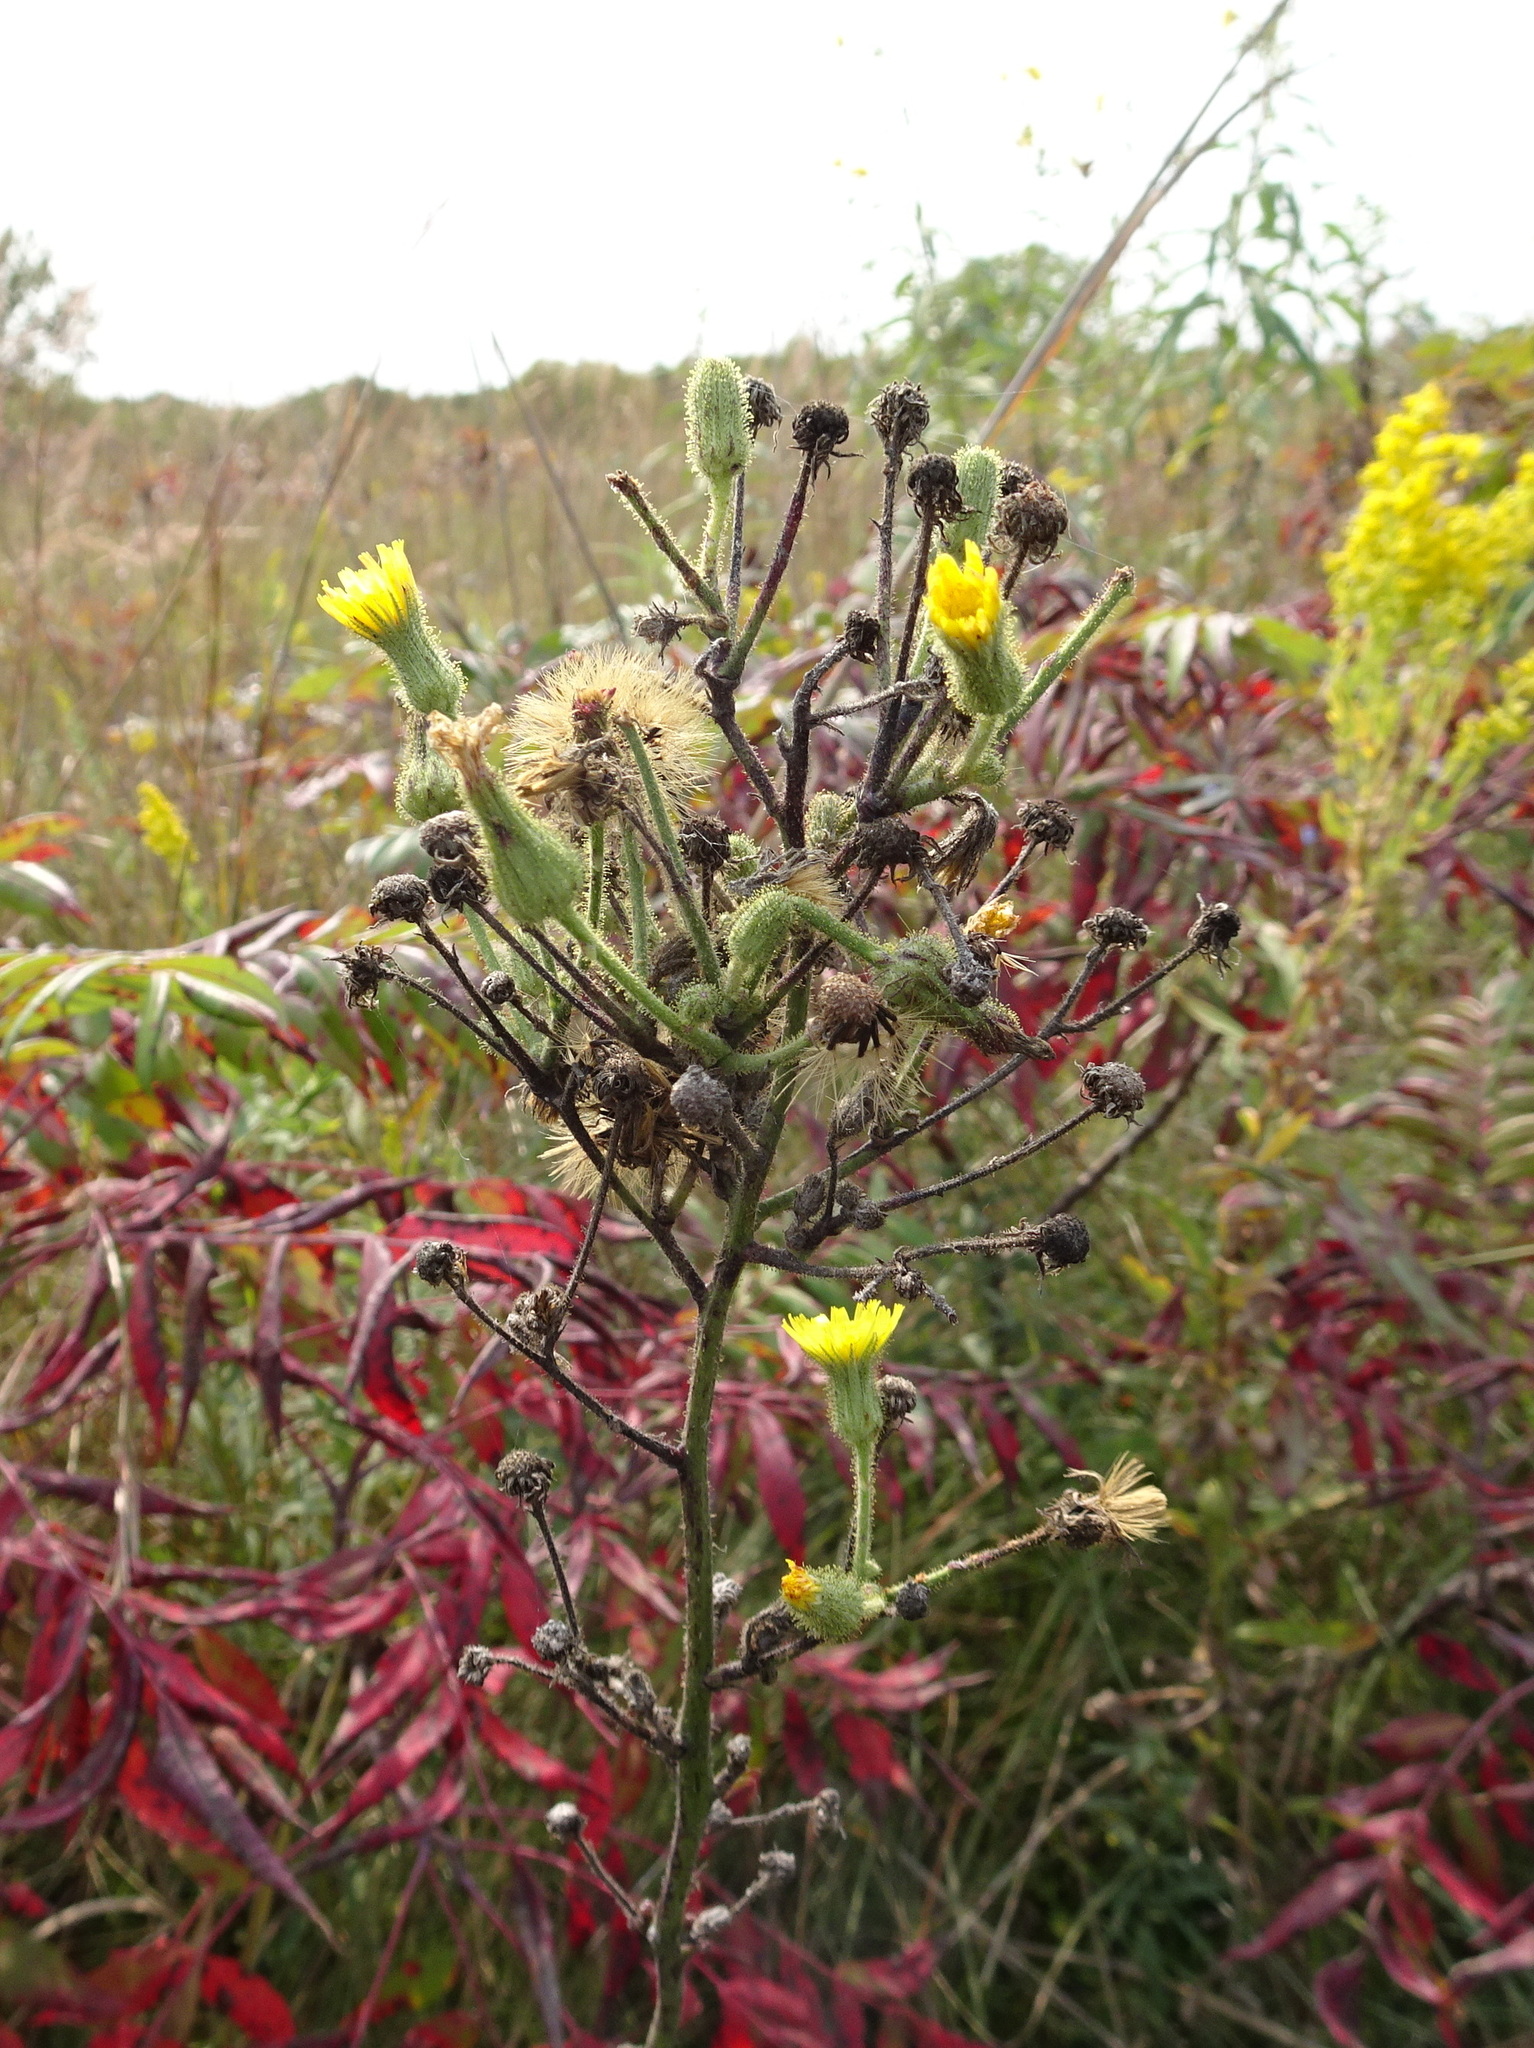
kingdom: Plantae
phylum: Tracheophyta
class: Magnoliopsida
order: Asterales
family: Asteraceae
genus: Hieracium
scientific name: Hieracium longipilum
